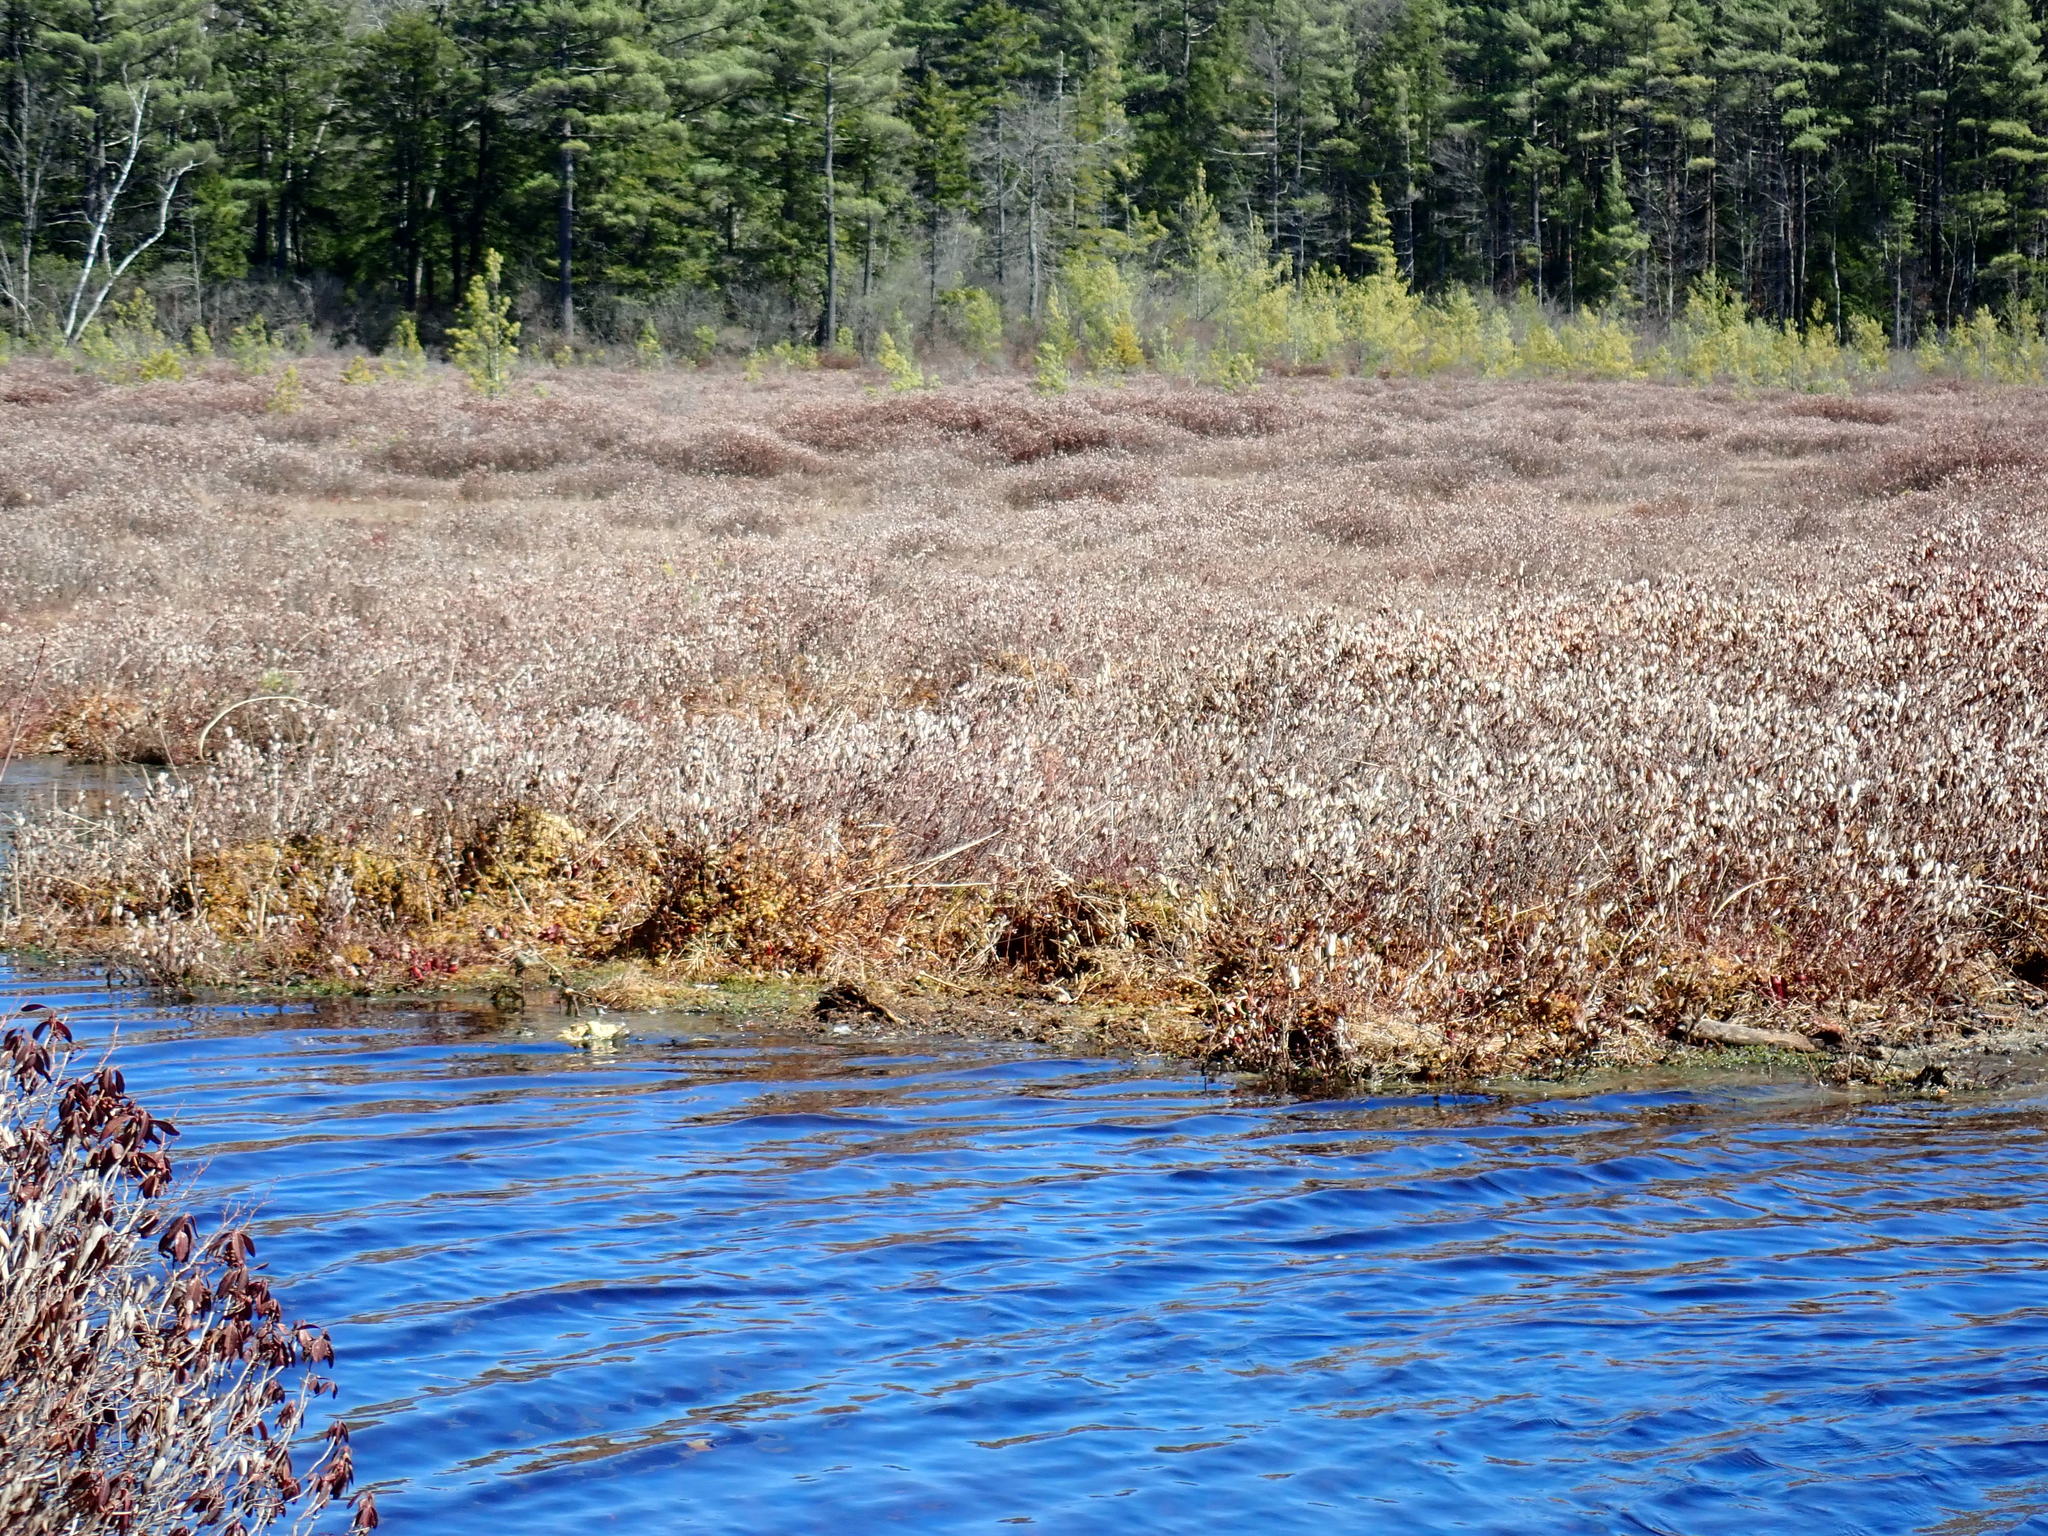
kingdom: Plantae
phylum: Tracheophyta
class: Magnoliopsida
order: Ericales
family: Ericaceae
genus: Chamaedaphne
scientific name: Chamaedaphne calyculata
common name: Leatherleaf
